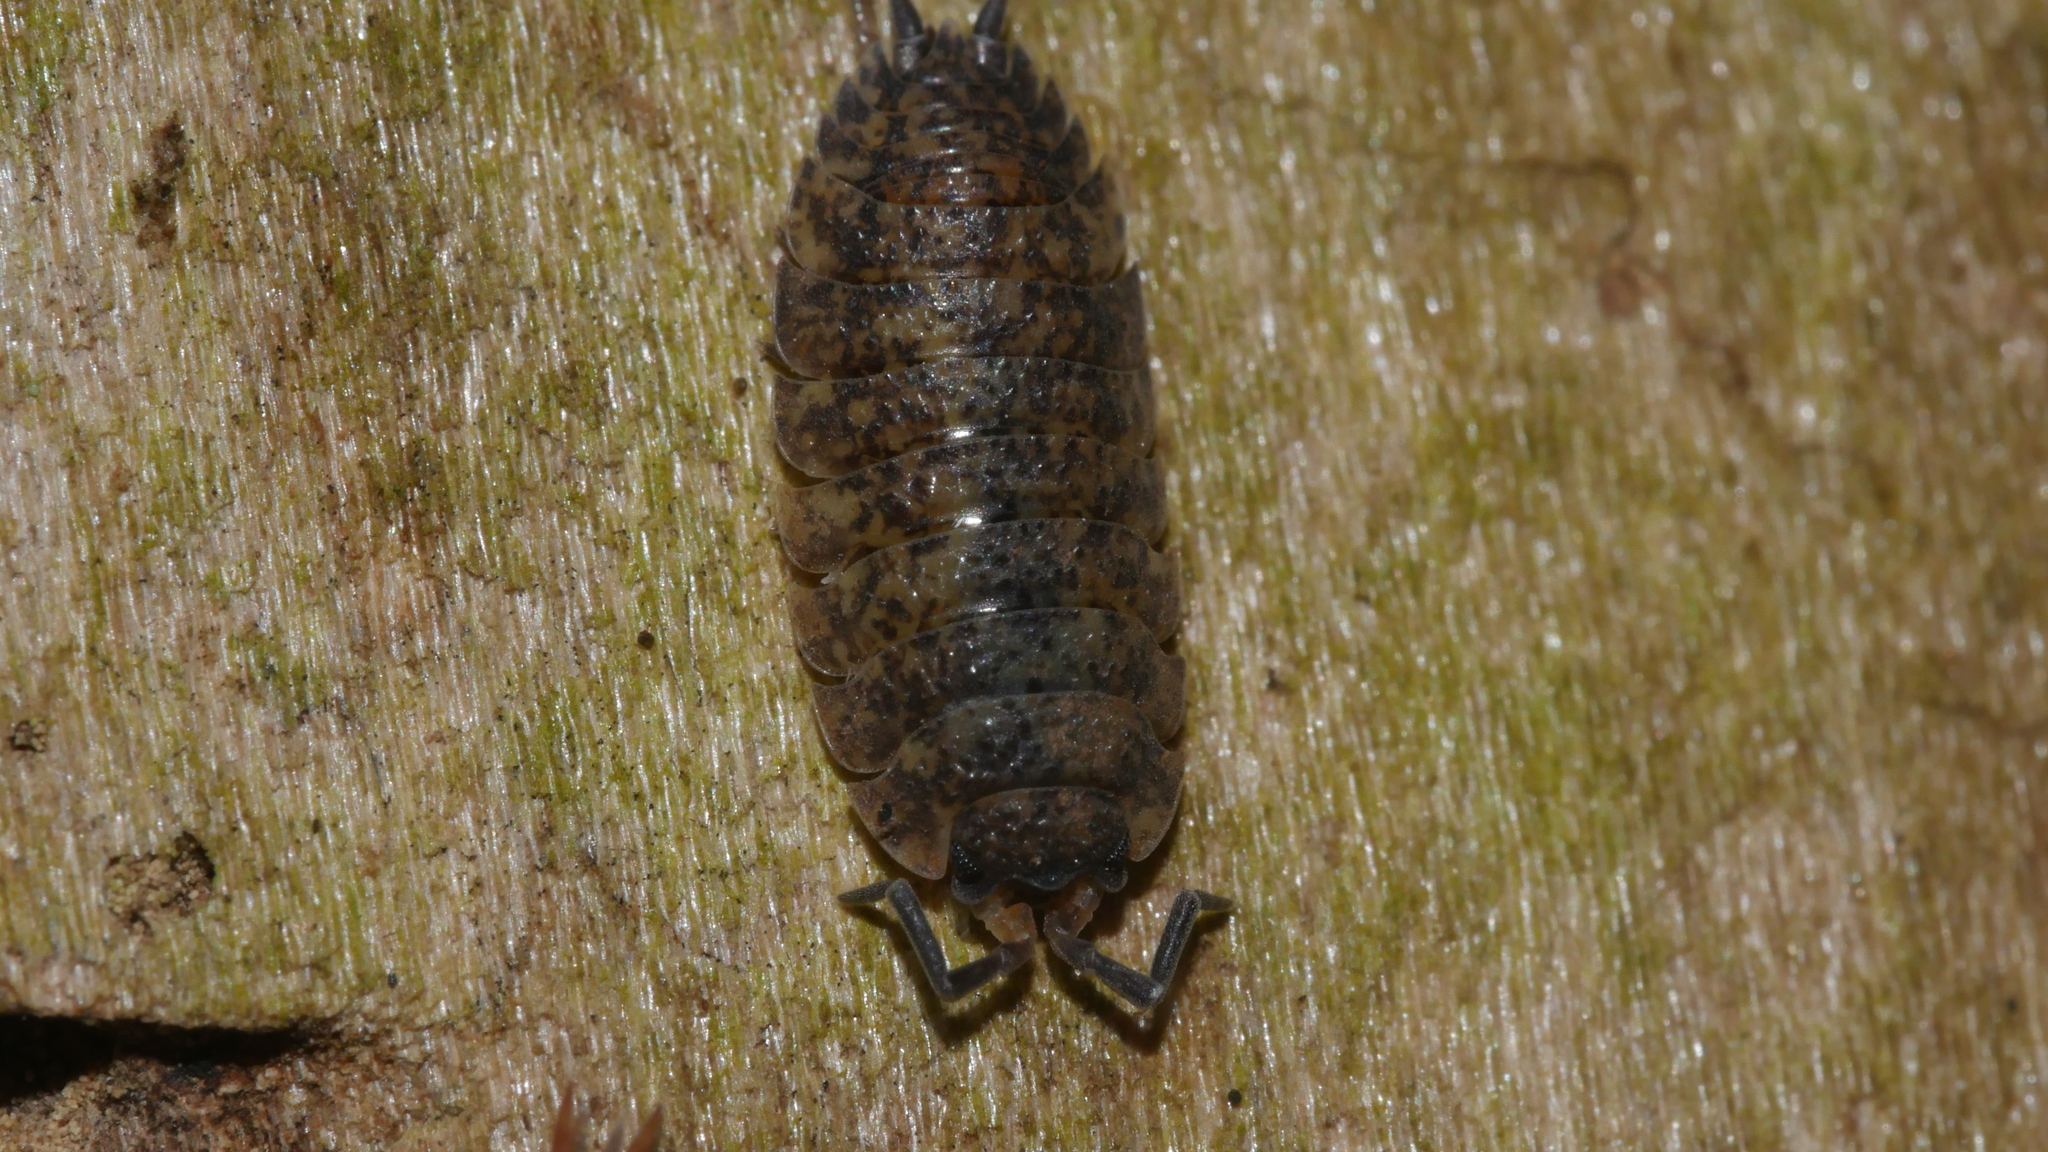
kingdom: Animalia
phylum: Arthropoda
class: Malacostraca
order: Isopoda
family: Porcellionidae
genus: Porcellio
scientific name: Porcellio scaber
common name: Common rough woodlouse
